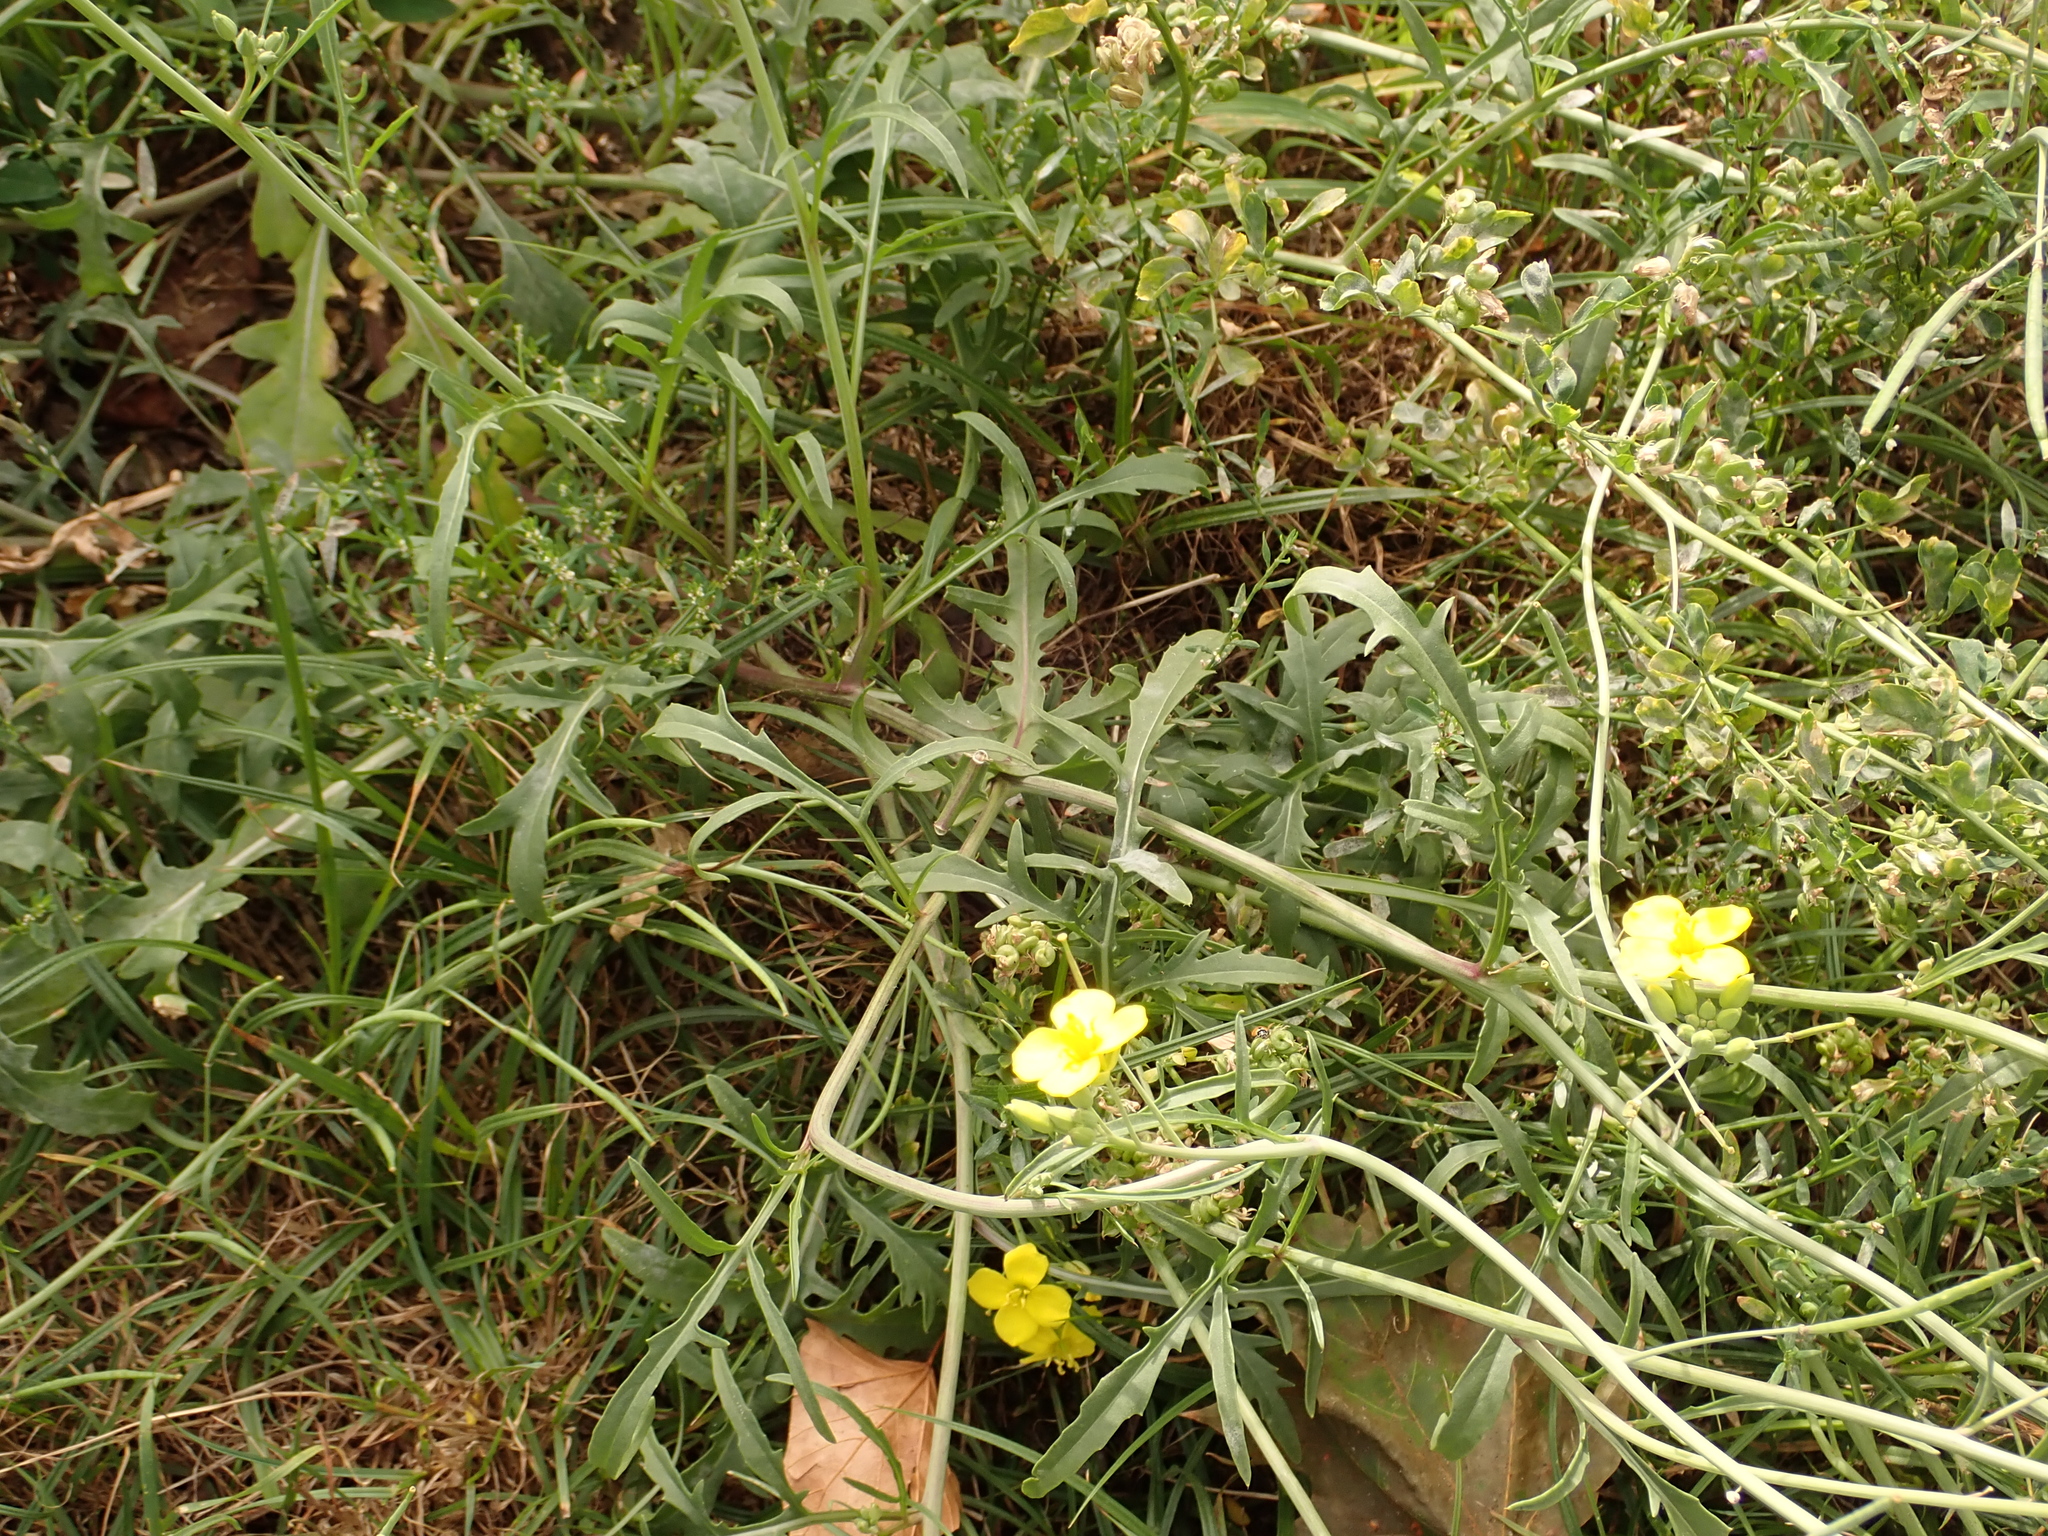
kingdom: Plantae
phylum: Tracheophyta
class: Magnoliopsida
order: Brassicales
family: Brassicaceae
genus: Diplotaxis
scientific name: Diplotaxis tenuifolia
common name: Perennial wall-rocket
